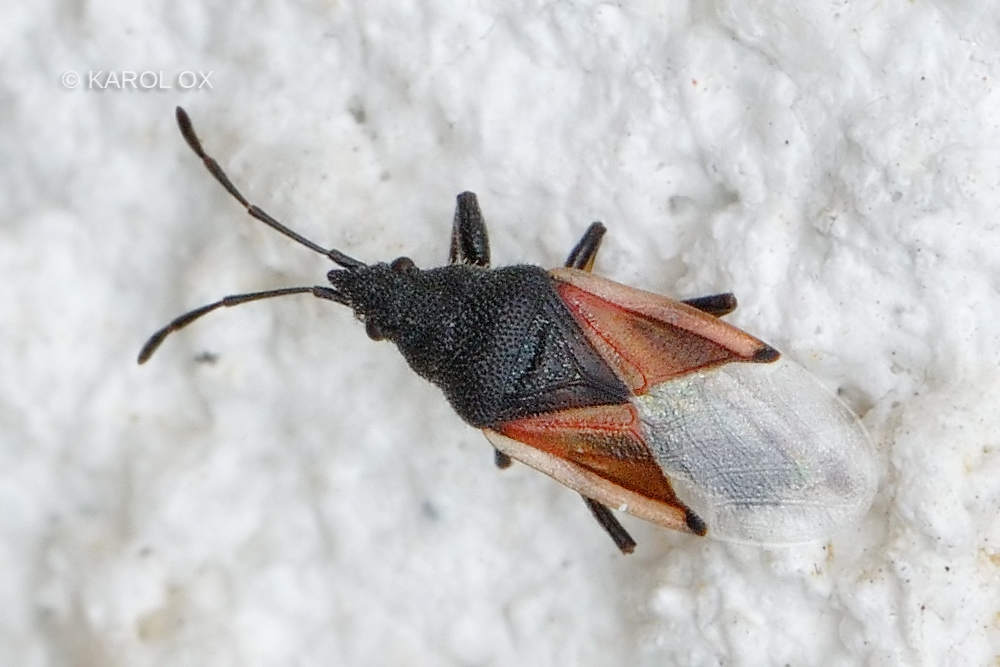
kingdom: Animalia
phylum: Arthropoda
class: Insecta
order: Hemiptera
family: Oxycarenidae
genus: Oxycarenus
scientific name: Oxycarenus lavaterae
